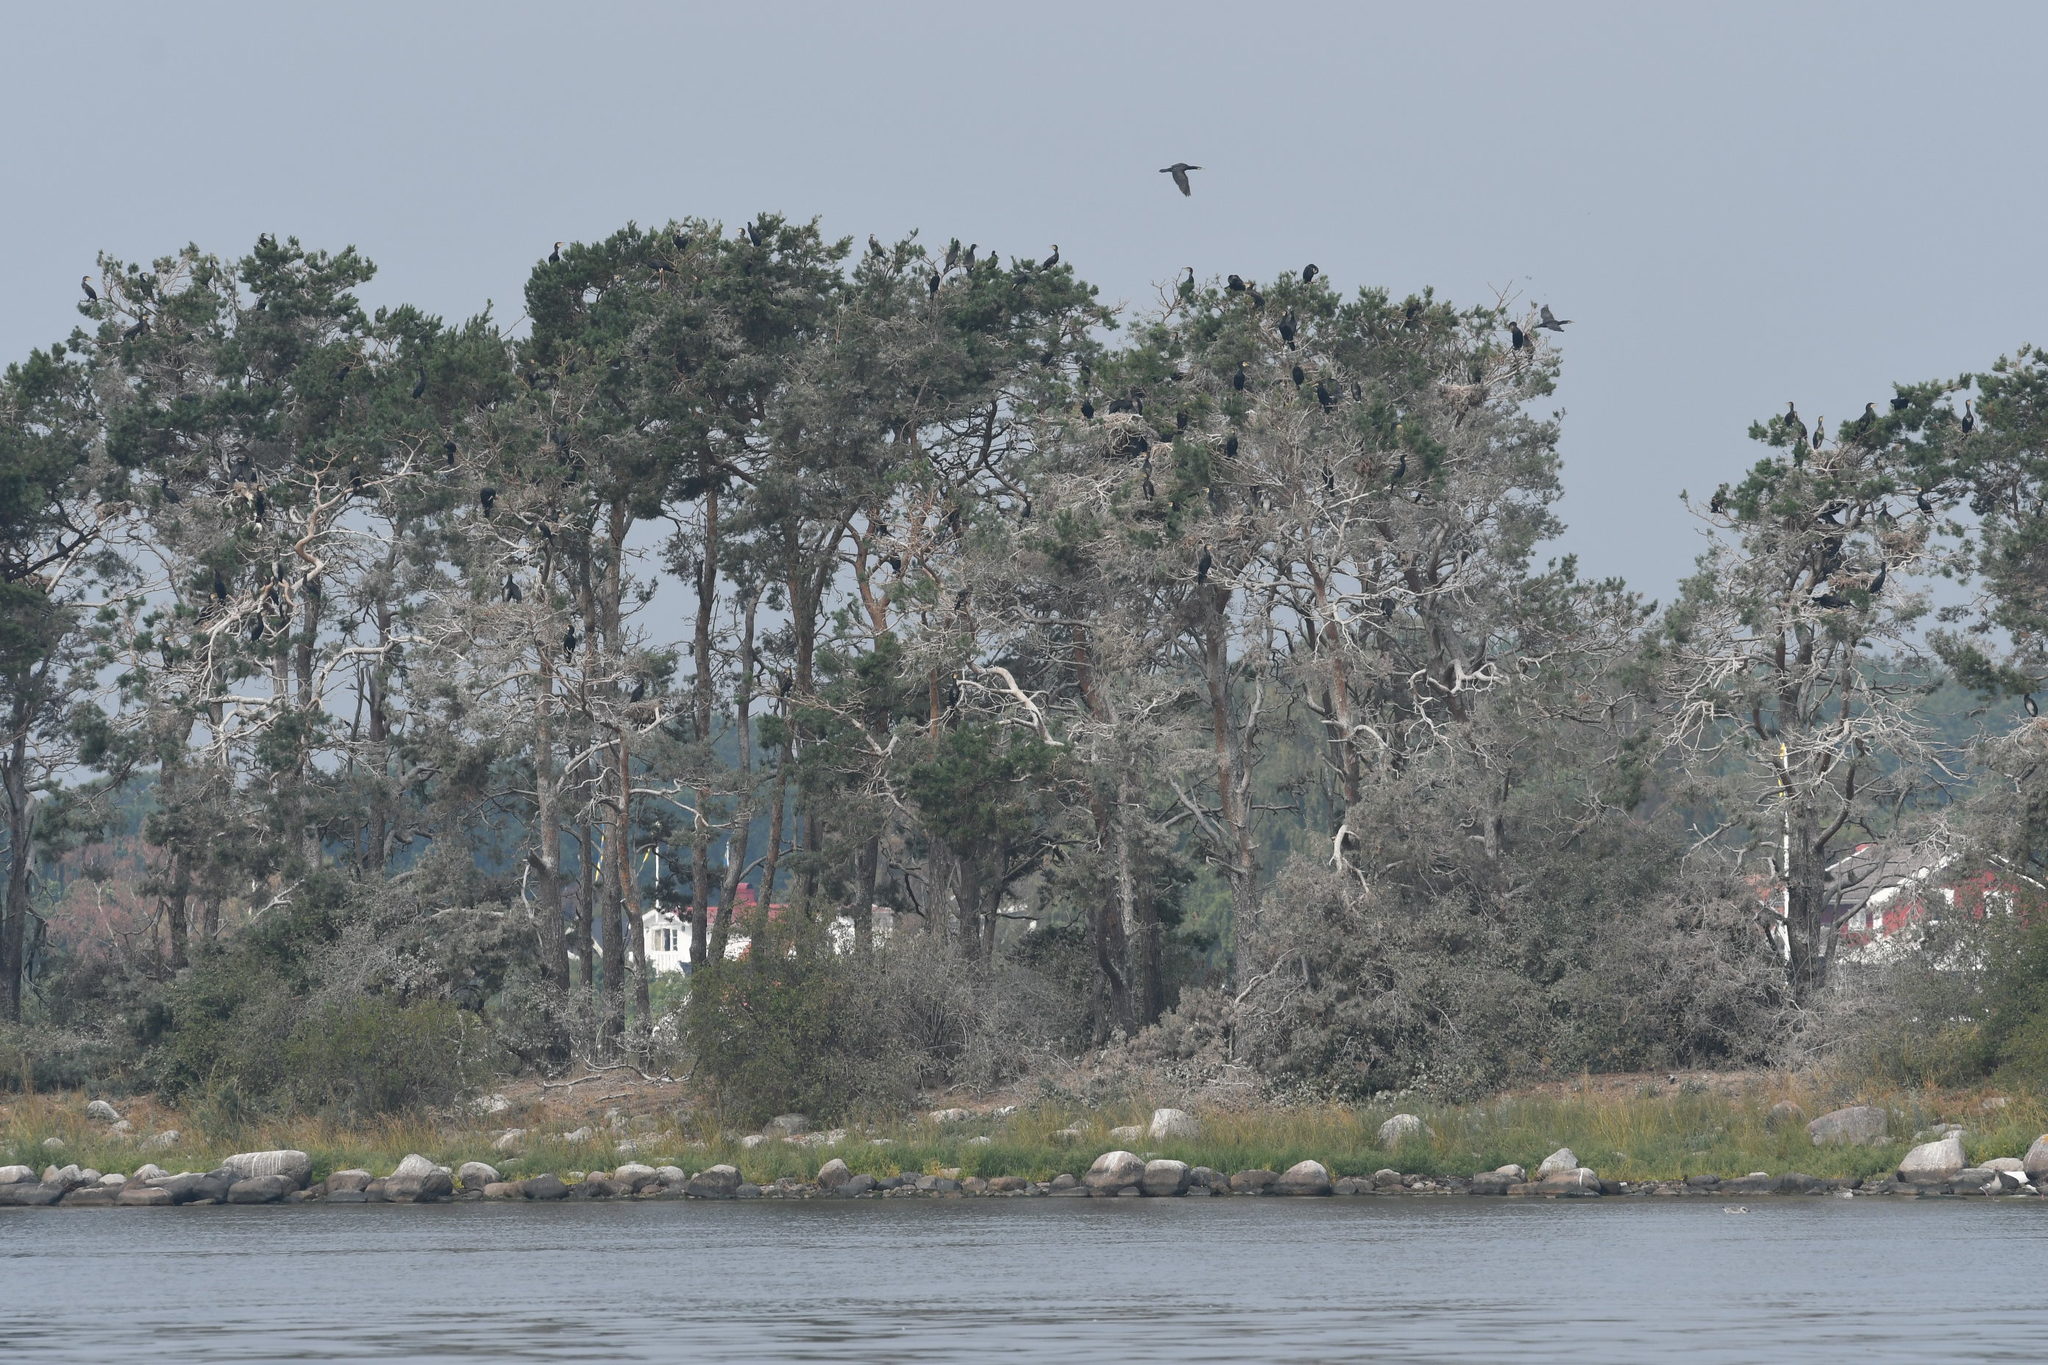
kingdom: Animalia
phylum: Chordata
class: Aves
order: Suliformes
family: Phalacrocoracidae
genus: Phalacrocorax
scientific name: Phalacrocorax carbo
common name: Great cormorant
